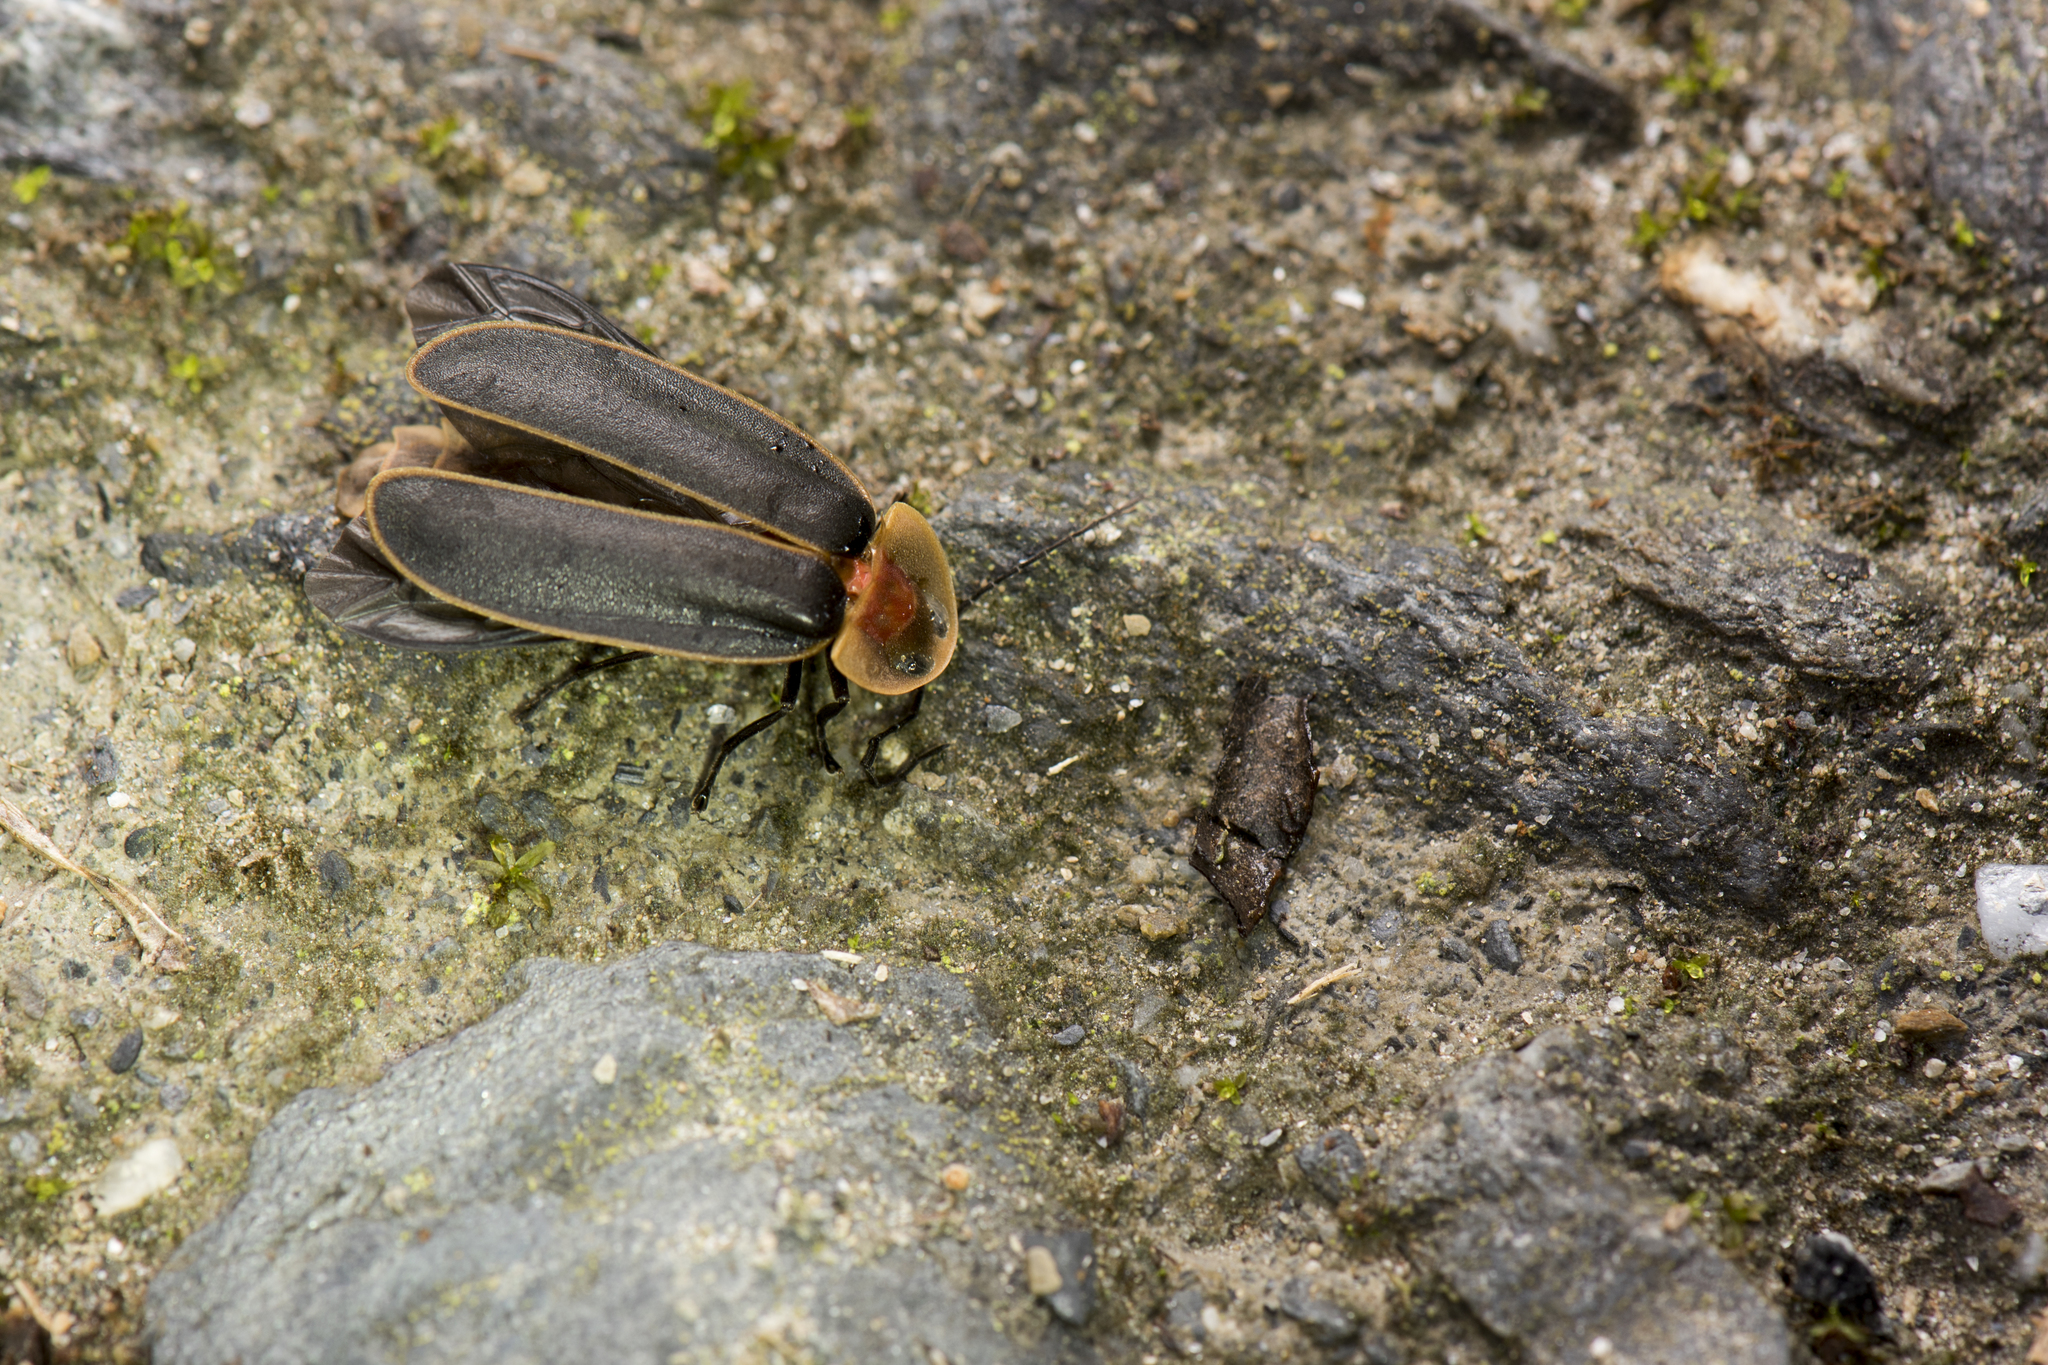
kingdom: Animalia
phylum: Arthropoda
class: Insecta
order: Coleoptera
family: Lampyridae
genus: Pyrocoelia
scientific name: Pyrocoelia praetexta
